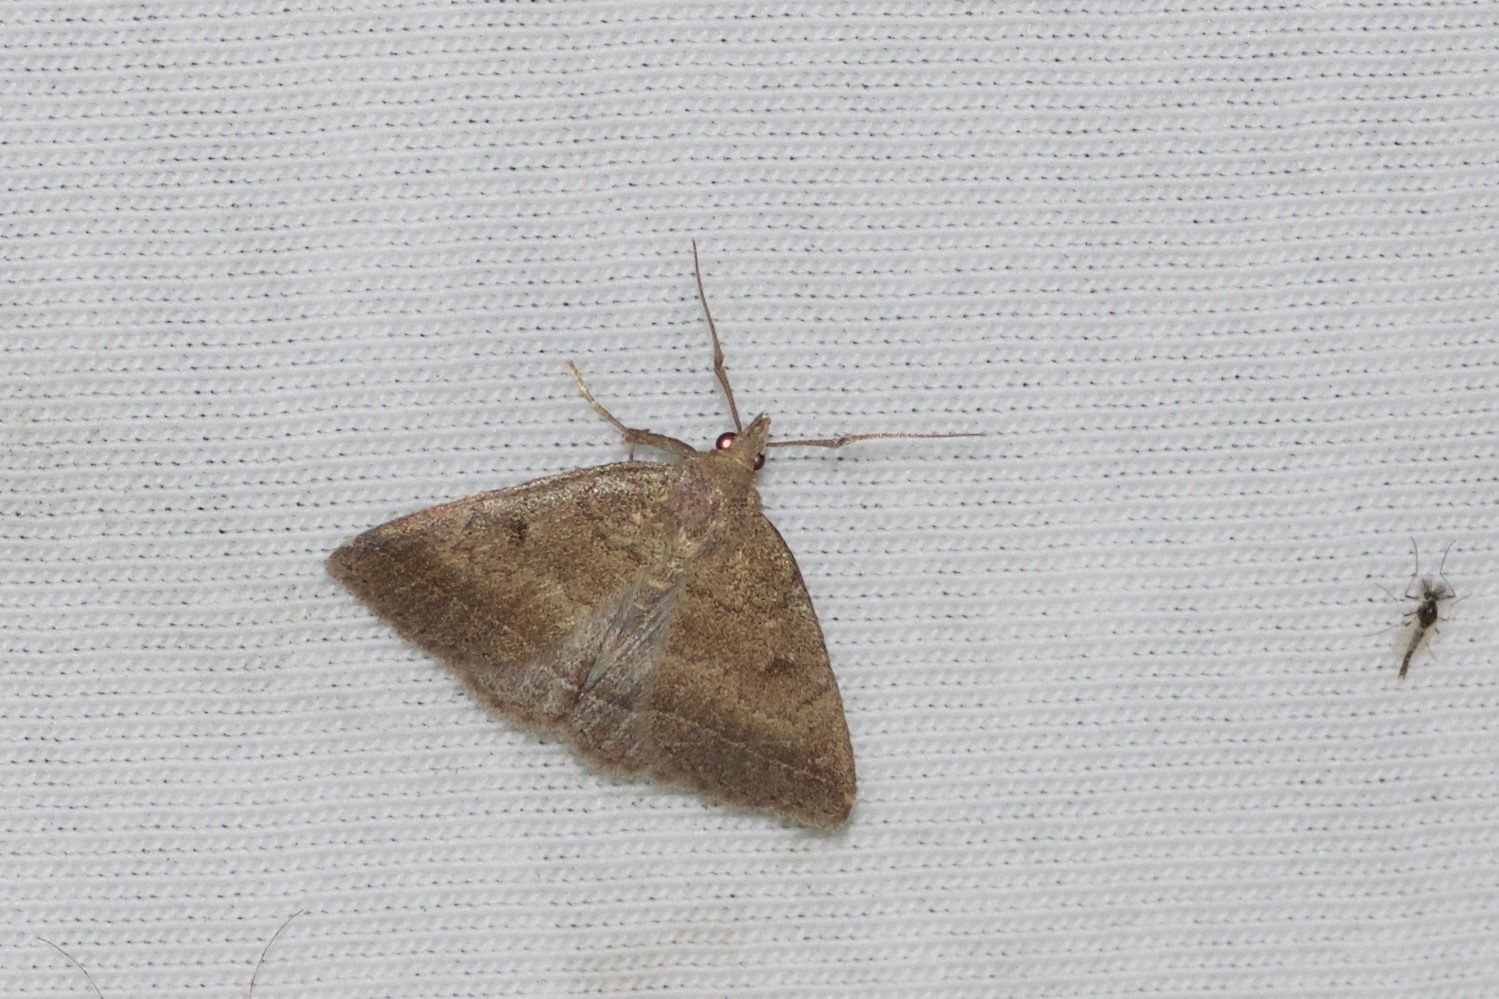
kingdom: Animalia
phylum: Arthropoda
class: Insecta
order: Lepidoptera
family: Erebidae
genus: Zanclognatha
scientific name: Zanclognatha jacchusalis
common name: Yellowish zanclognatha
